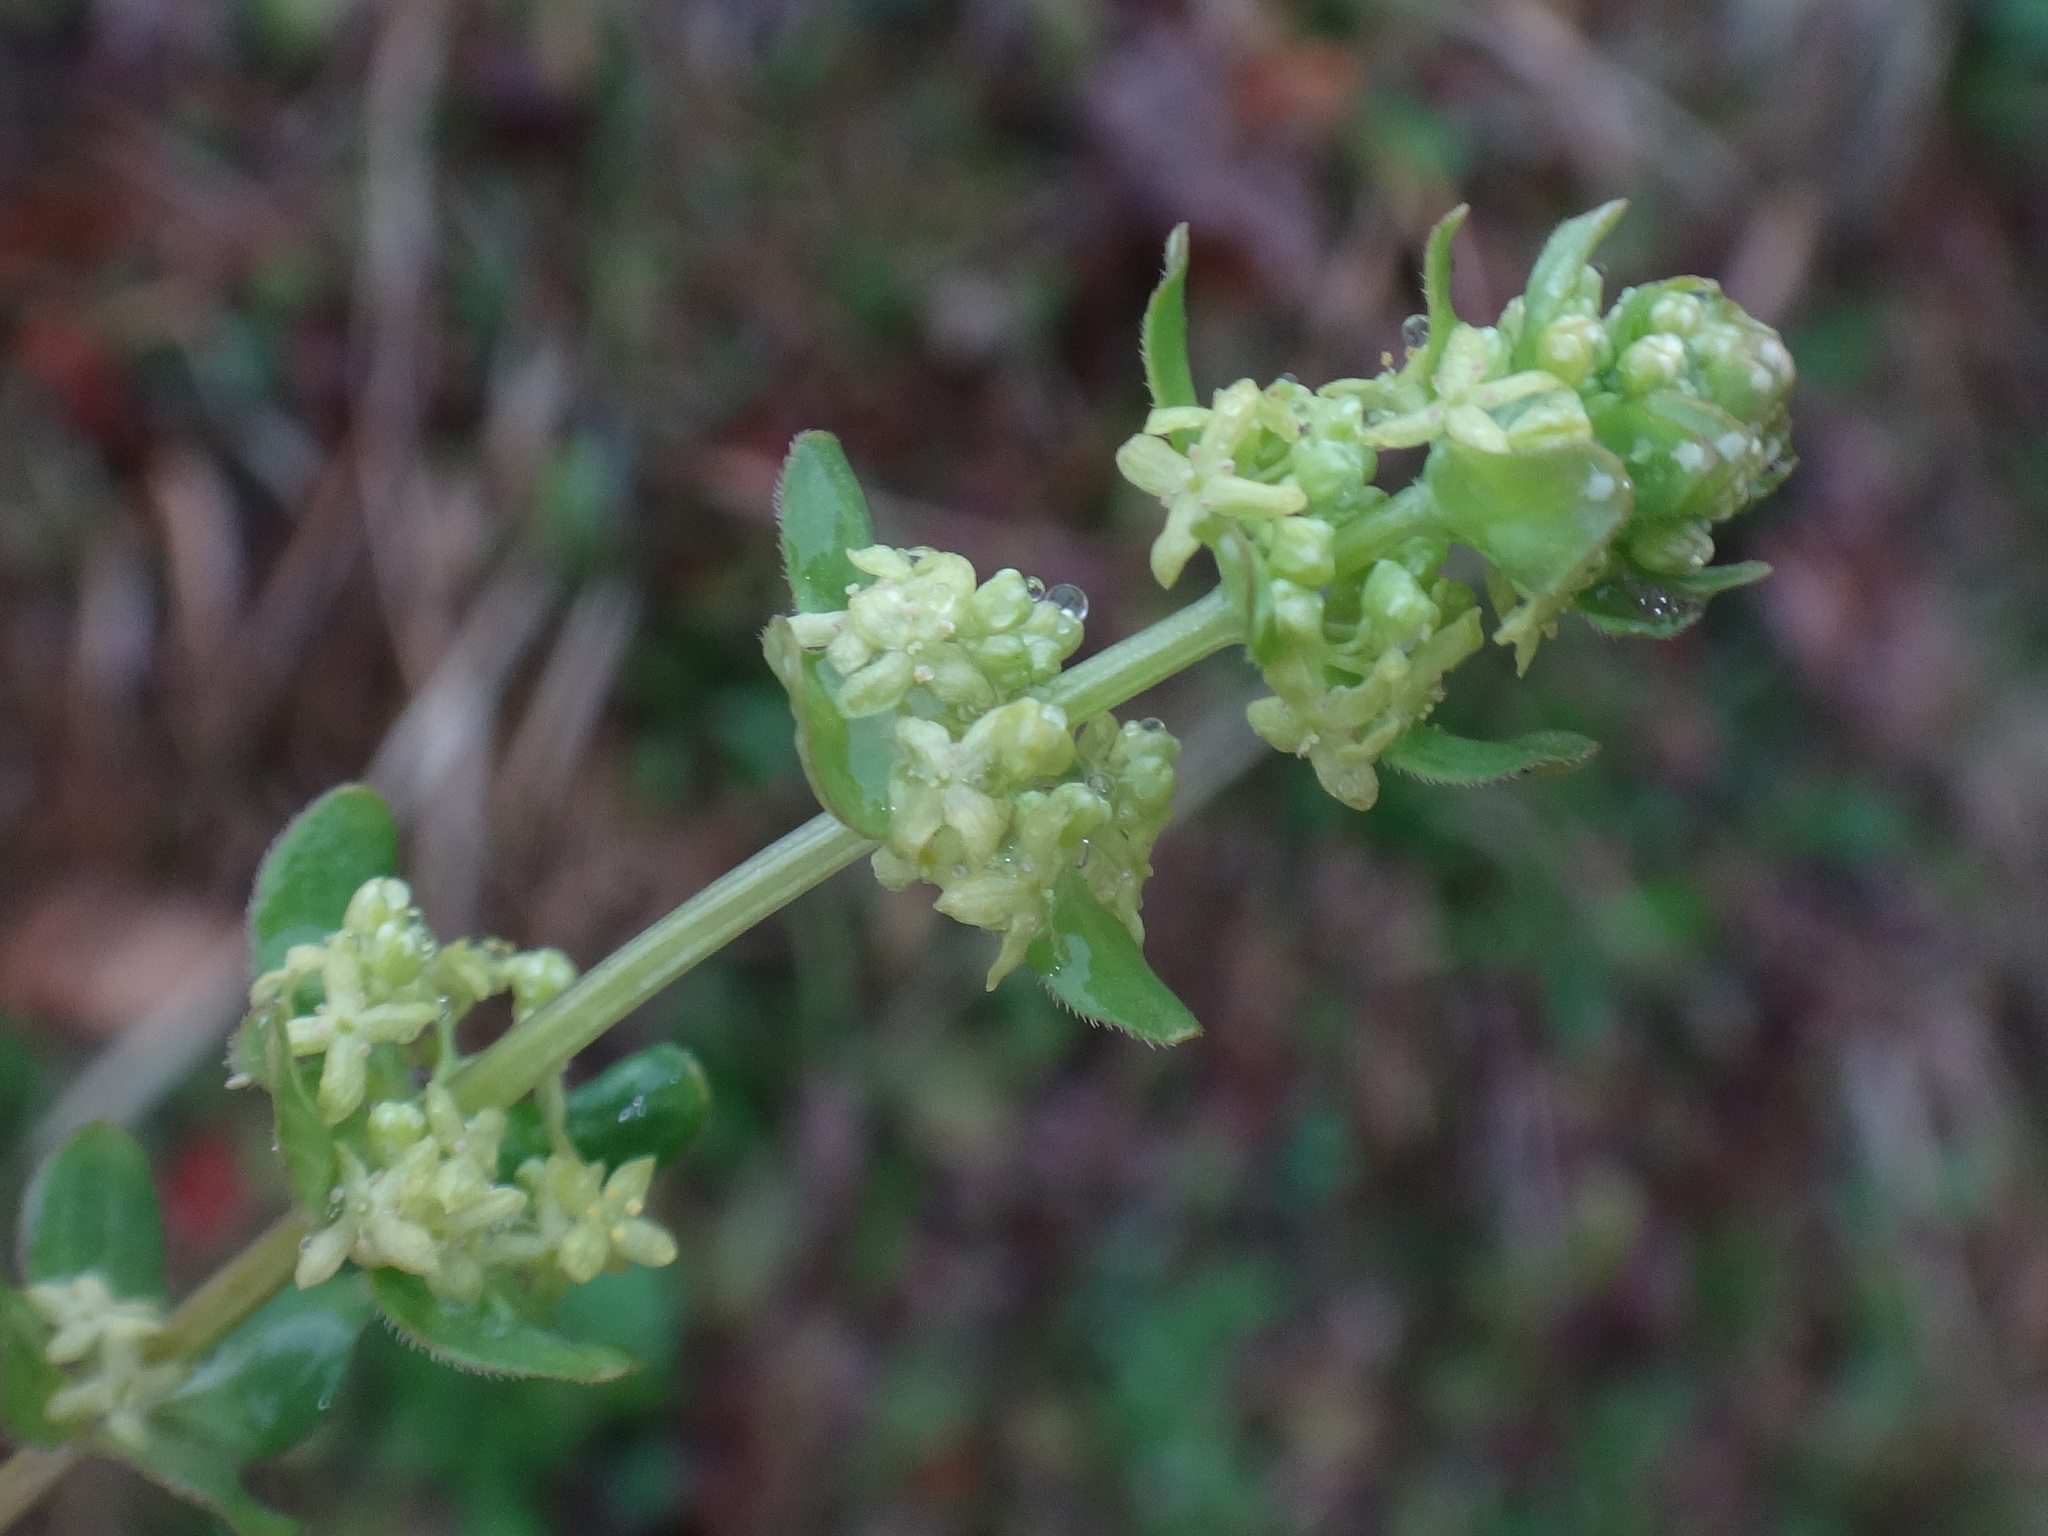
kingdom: Plantae
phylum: Tracheophyta
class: Magnoliopsida
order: Gentianales
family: Rubiaceae
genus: Cruciata
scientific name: Cruciata glabra
